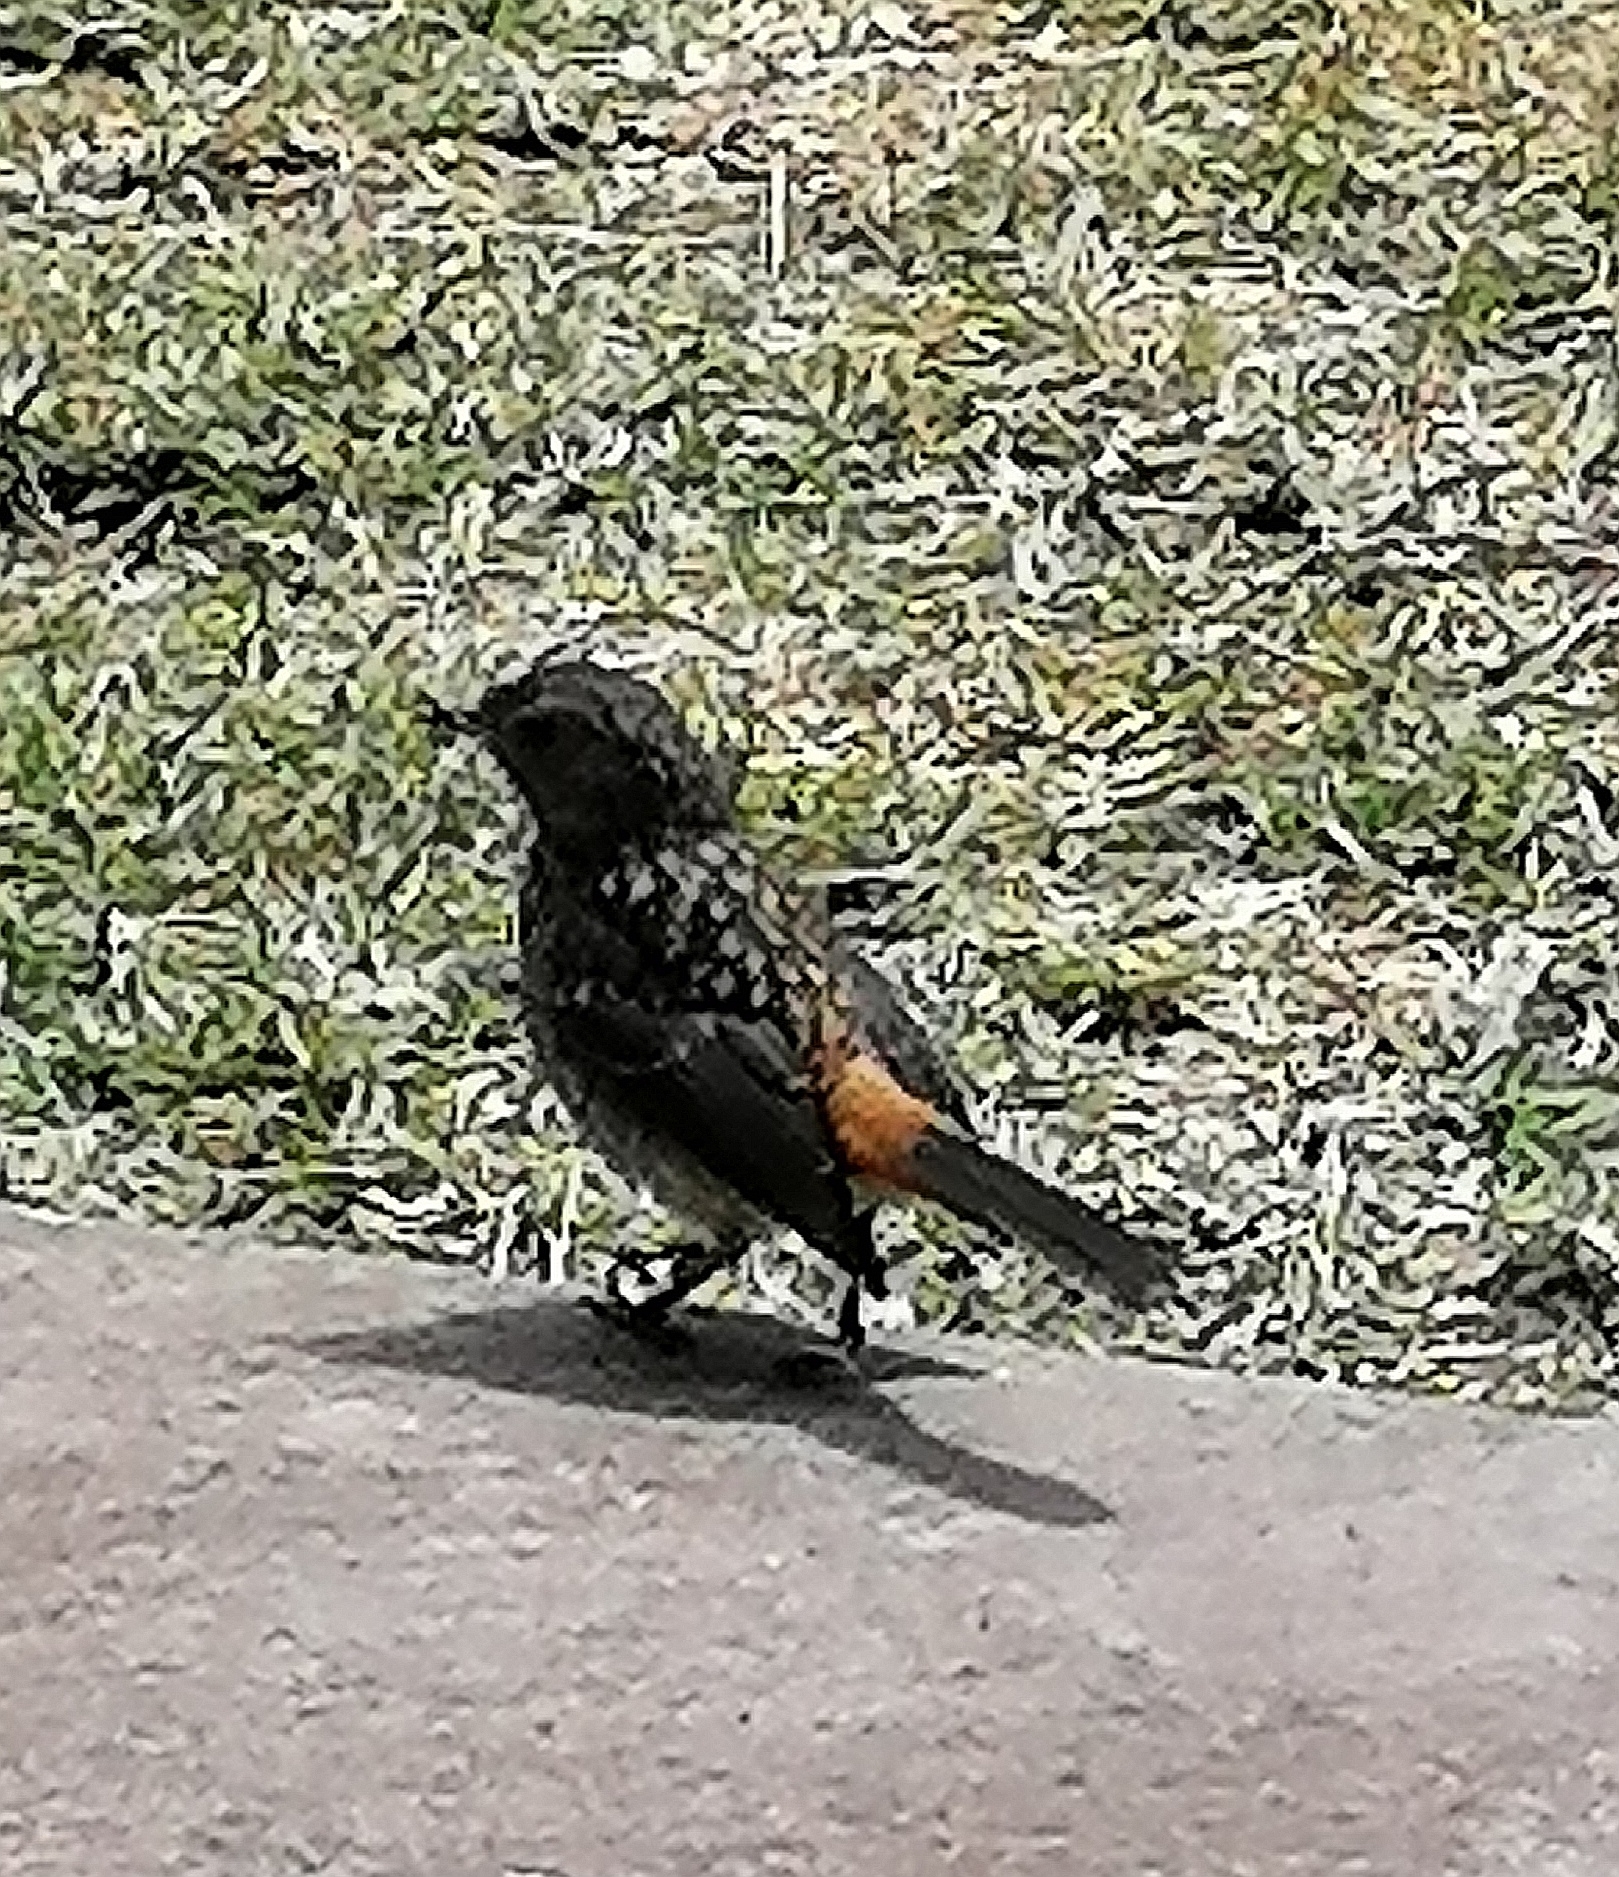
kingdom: Animalia
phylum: Chordata
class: Aves
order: Passeriformes
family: Muscicapidae
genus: Cossypha
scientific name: Cossypha caffra
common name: Cape robin-chat
